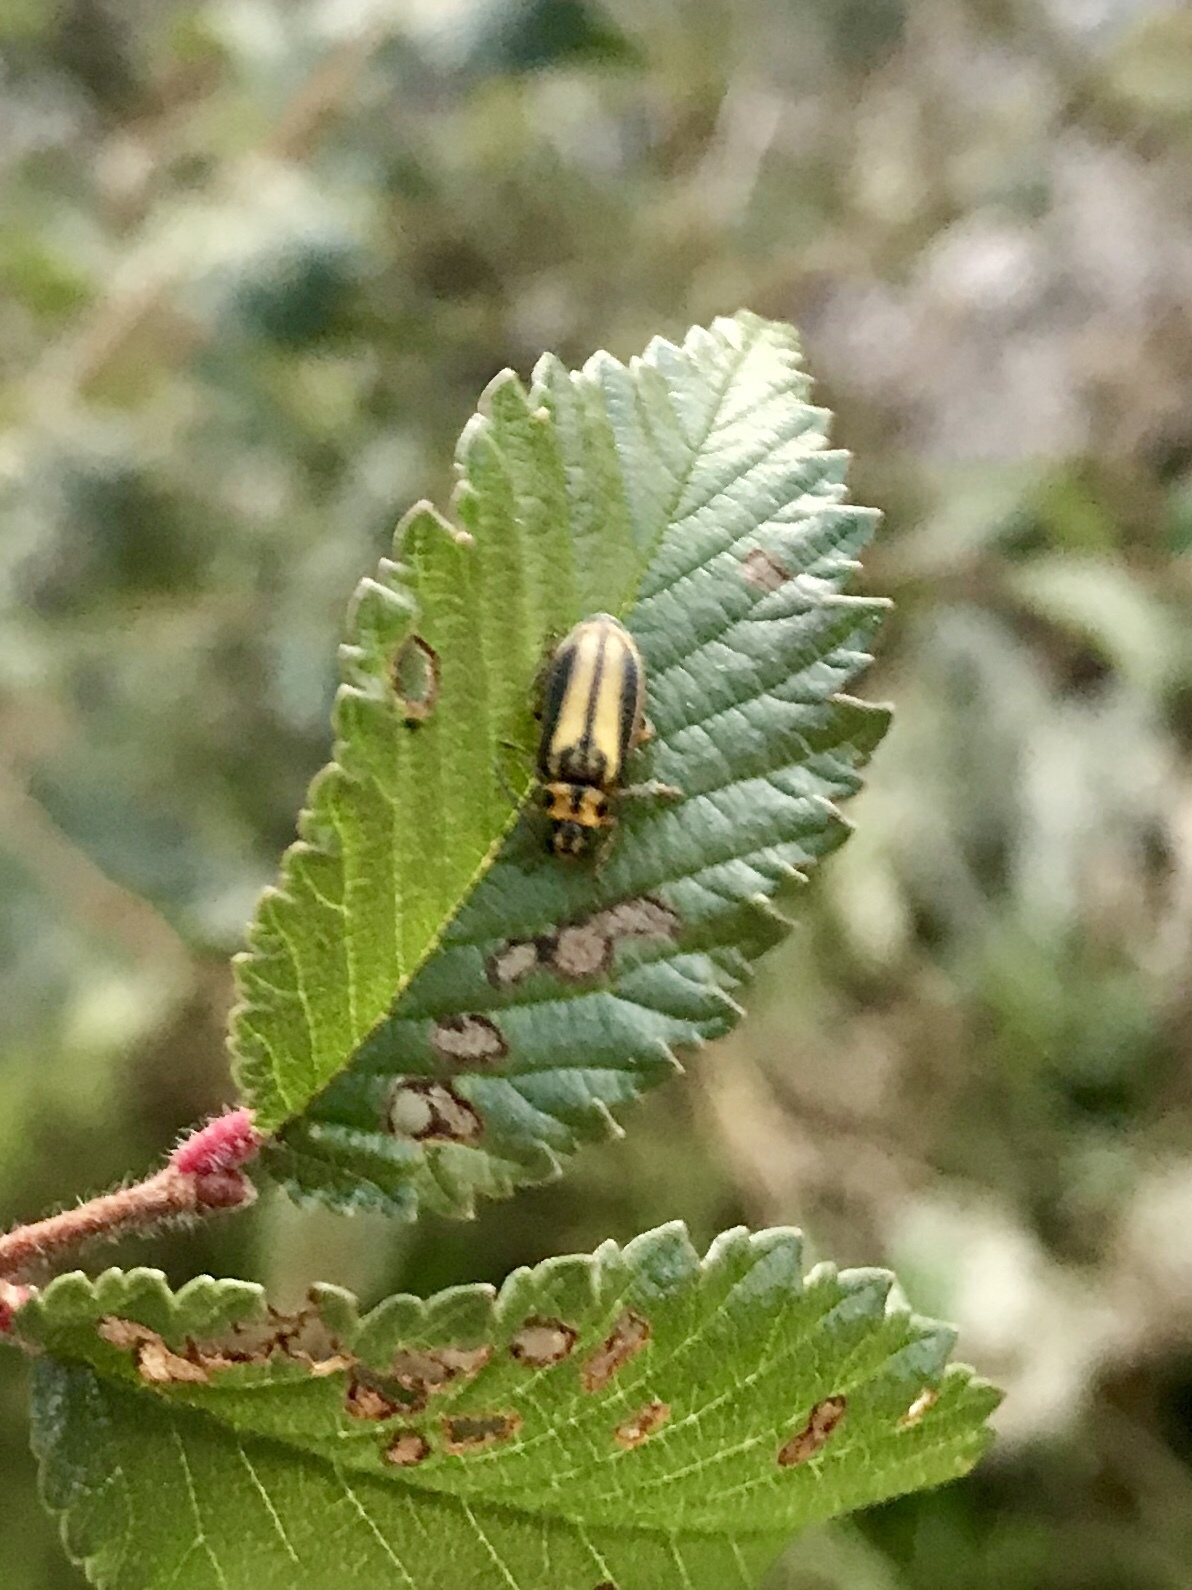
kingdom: Animalia
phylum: Arthropoda
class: Insecta
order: Coleoptera
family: Chrysomelidae
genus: Xanthogaleruca
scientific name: Xanthogaleruca luteola
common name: Elm leaf beetle
